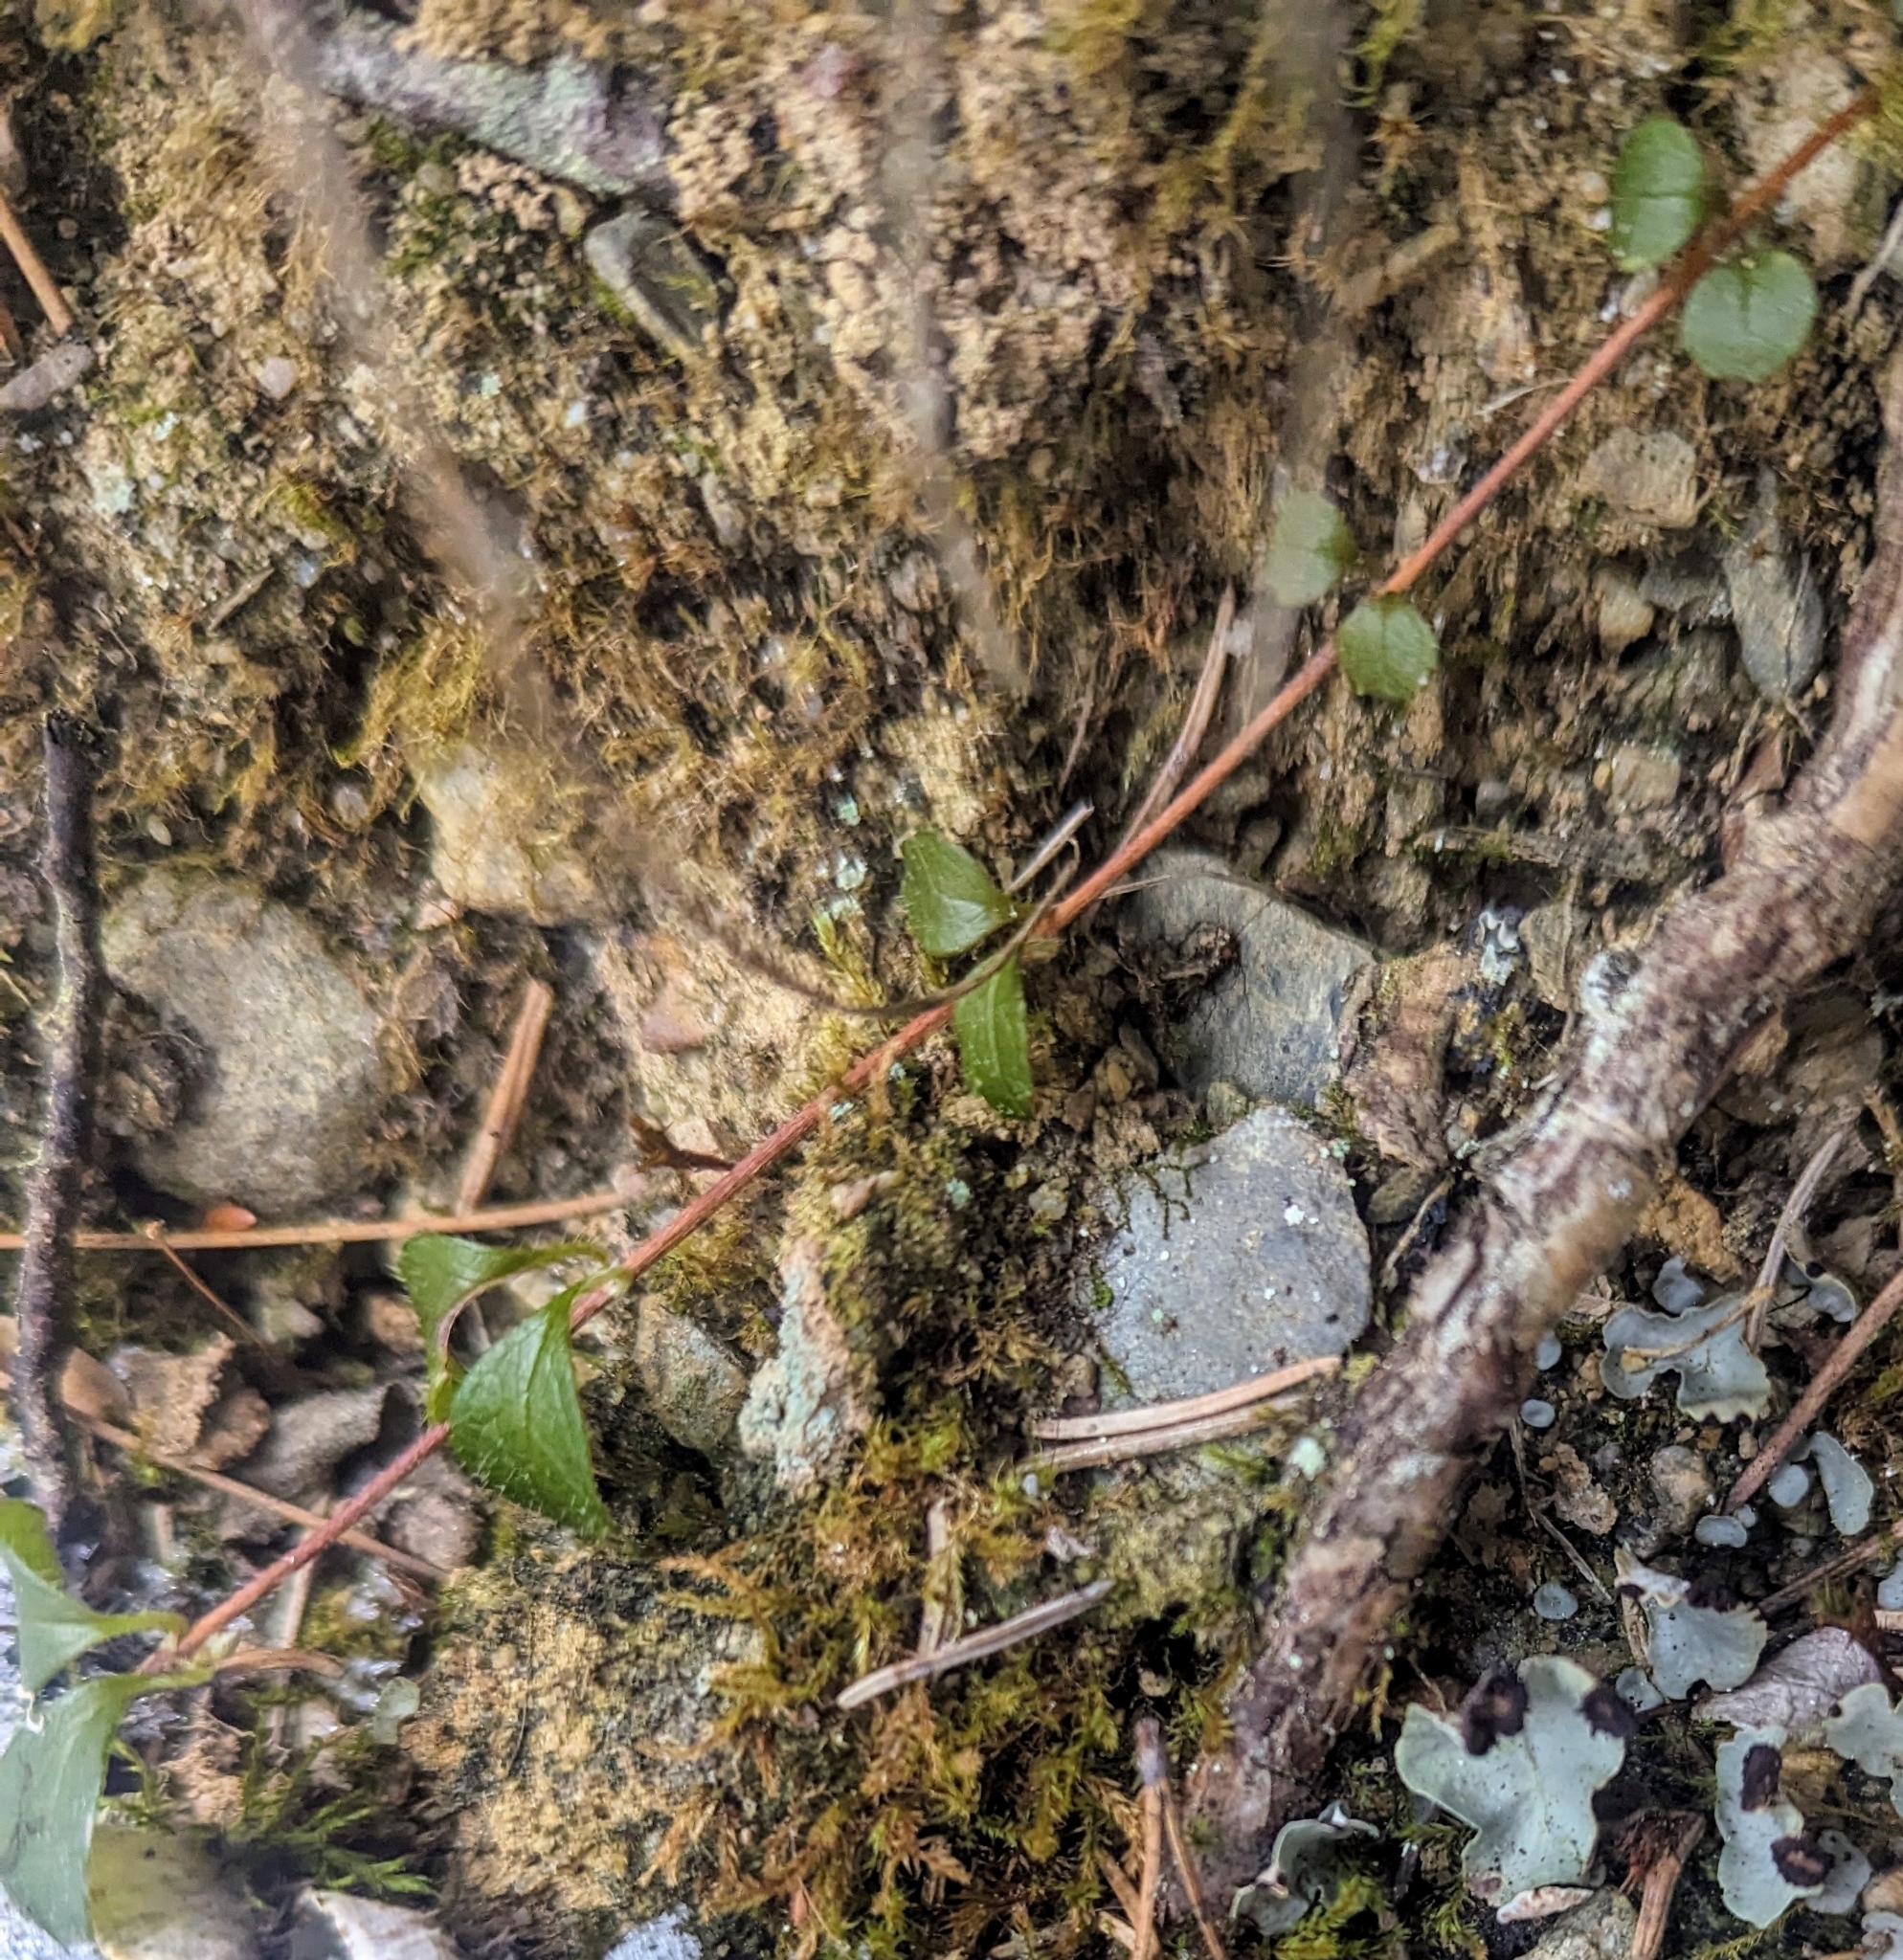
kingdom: Plantae
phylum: Tracheophyta
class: Magnoliopsida
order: Dipsacales
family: Caprifoliaceae
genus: Linnaea
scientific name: Linnaea borealis
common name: Twinflower
